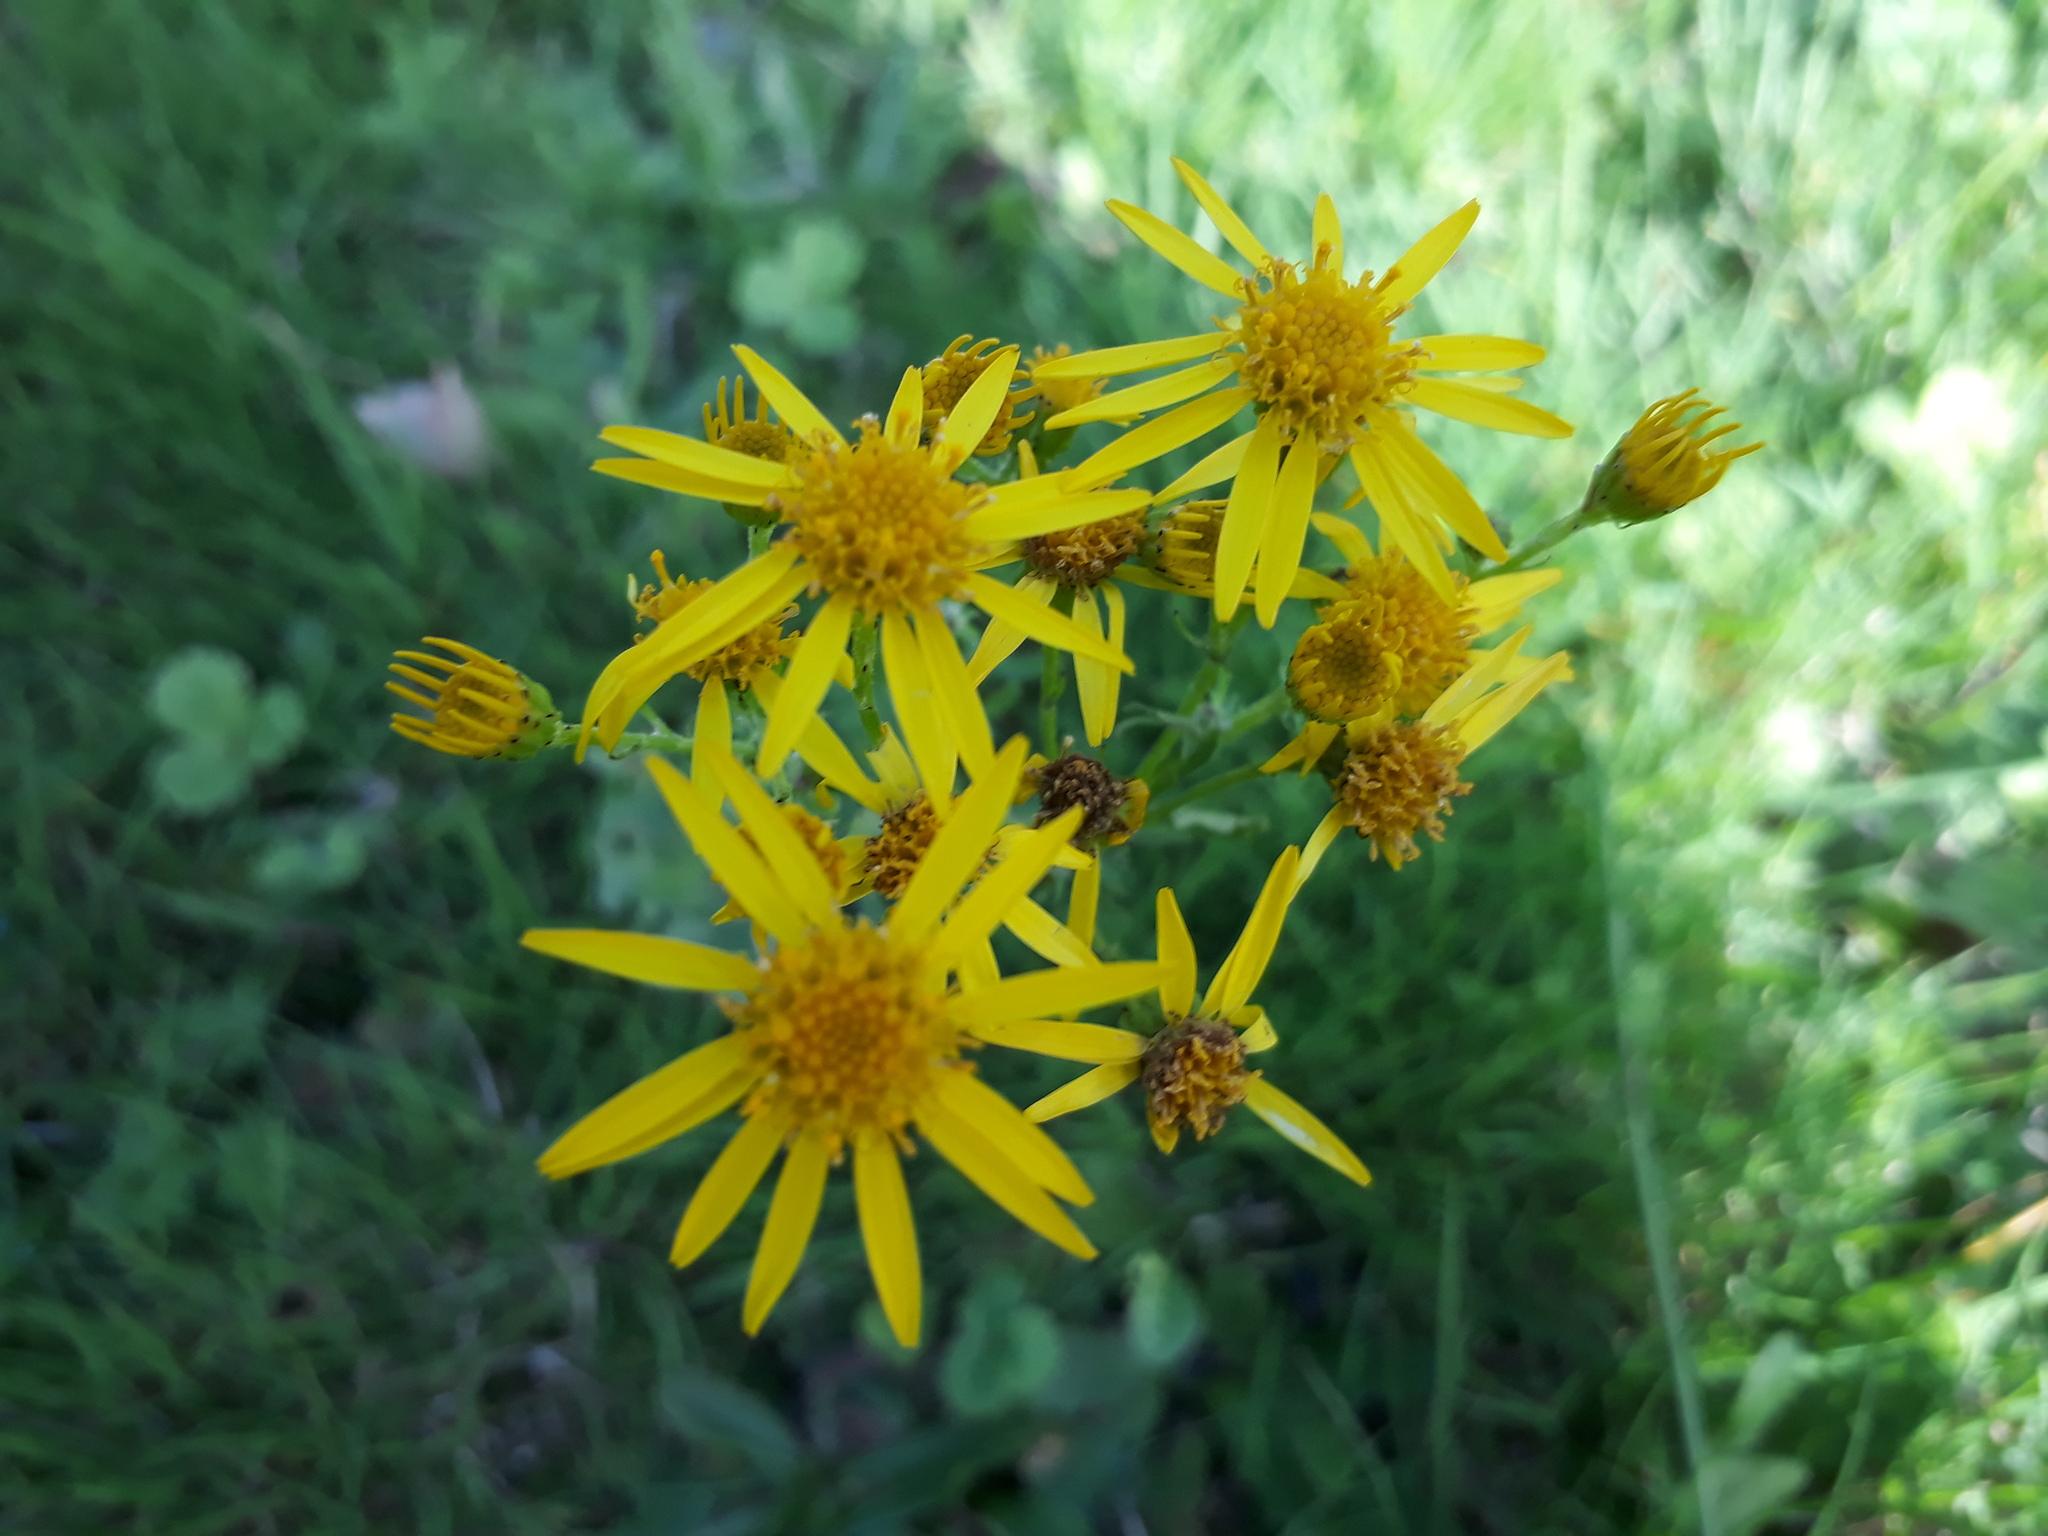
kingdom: Plantae
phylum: Tracheophyta
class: Magnoliopsida
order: Asterales
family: Asteraceae
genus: Jacobaea
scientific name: Jacobaea vulgaris
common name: Stinking willie
